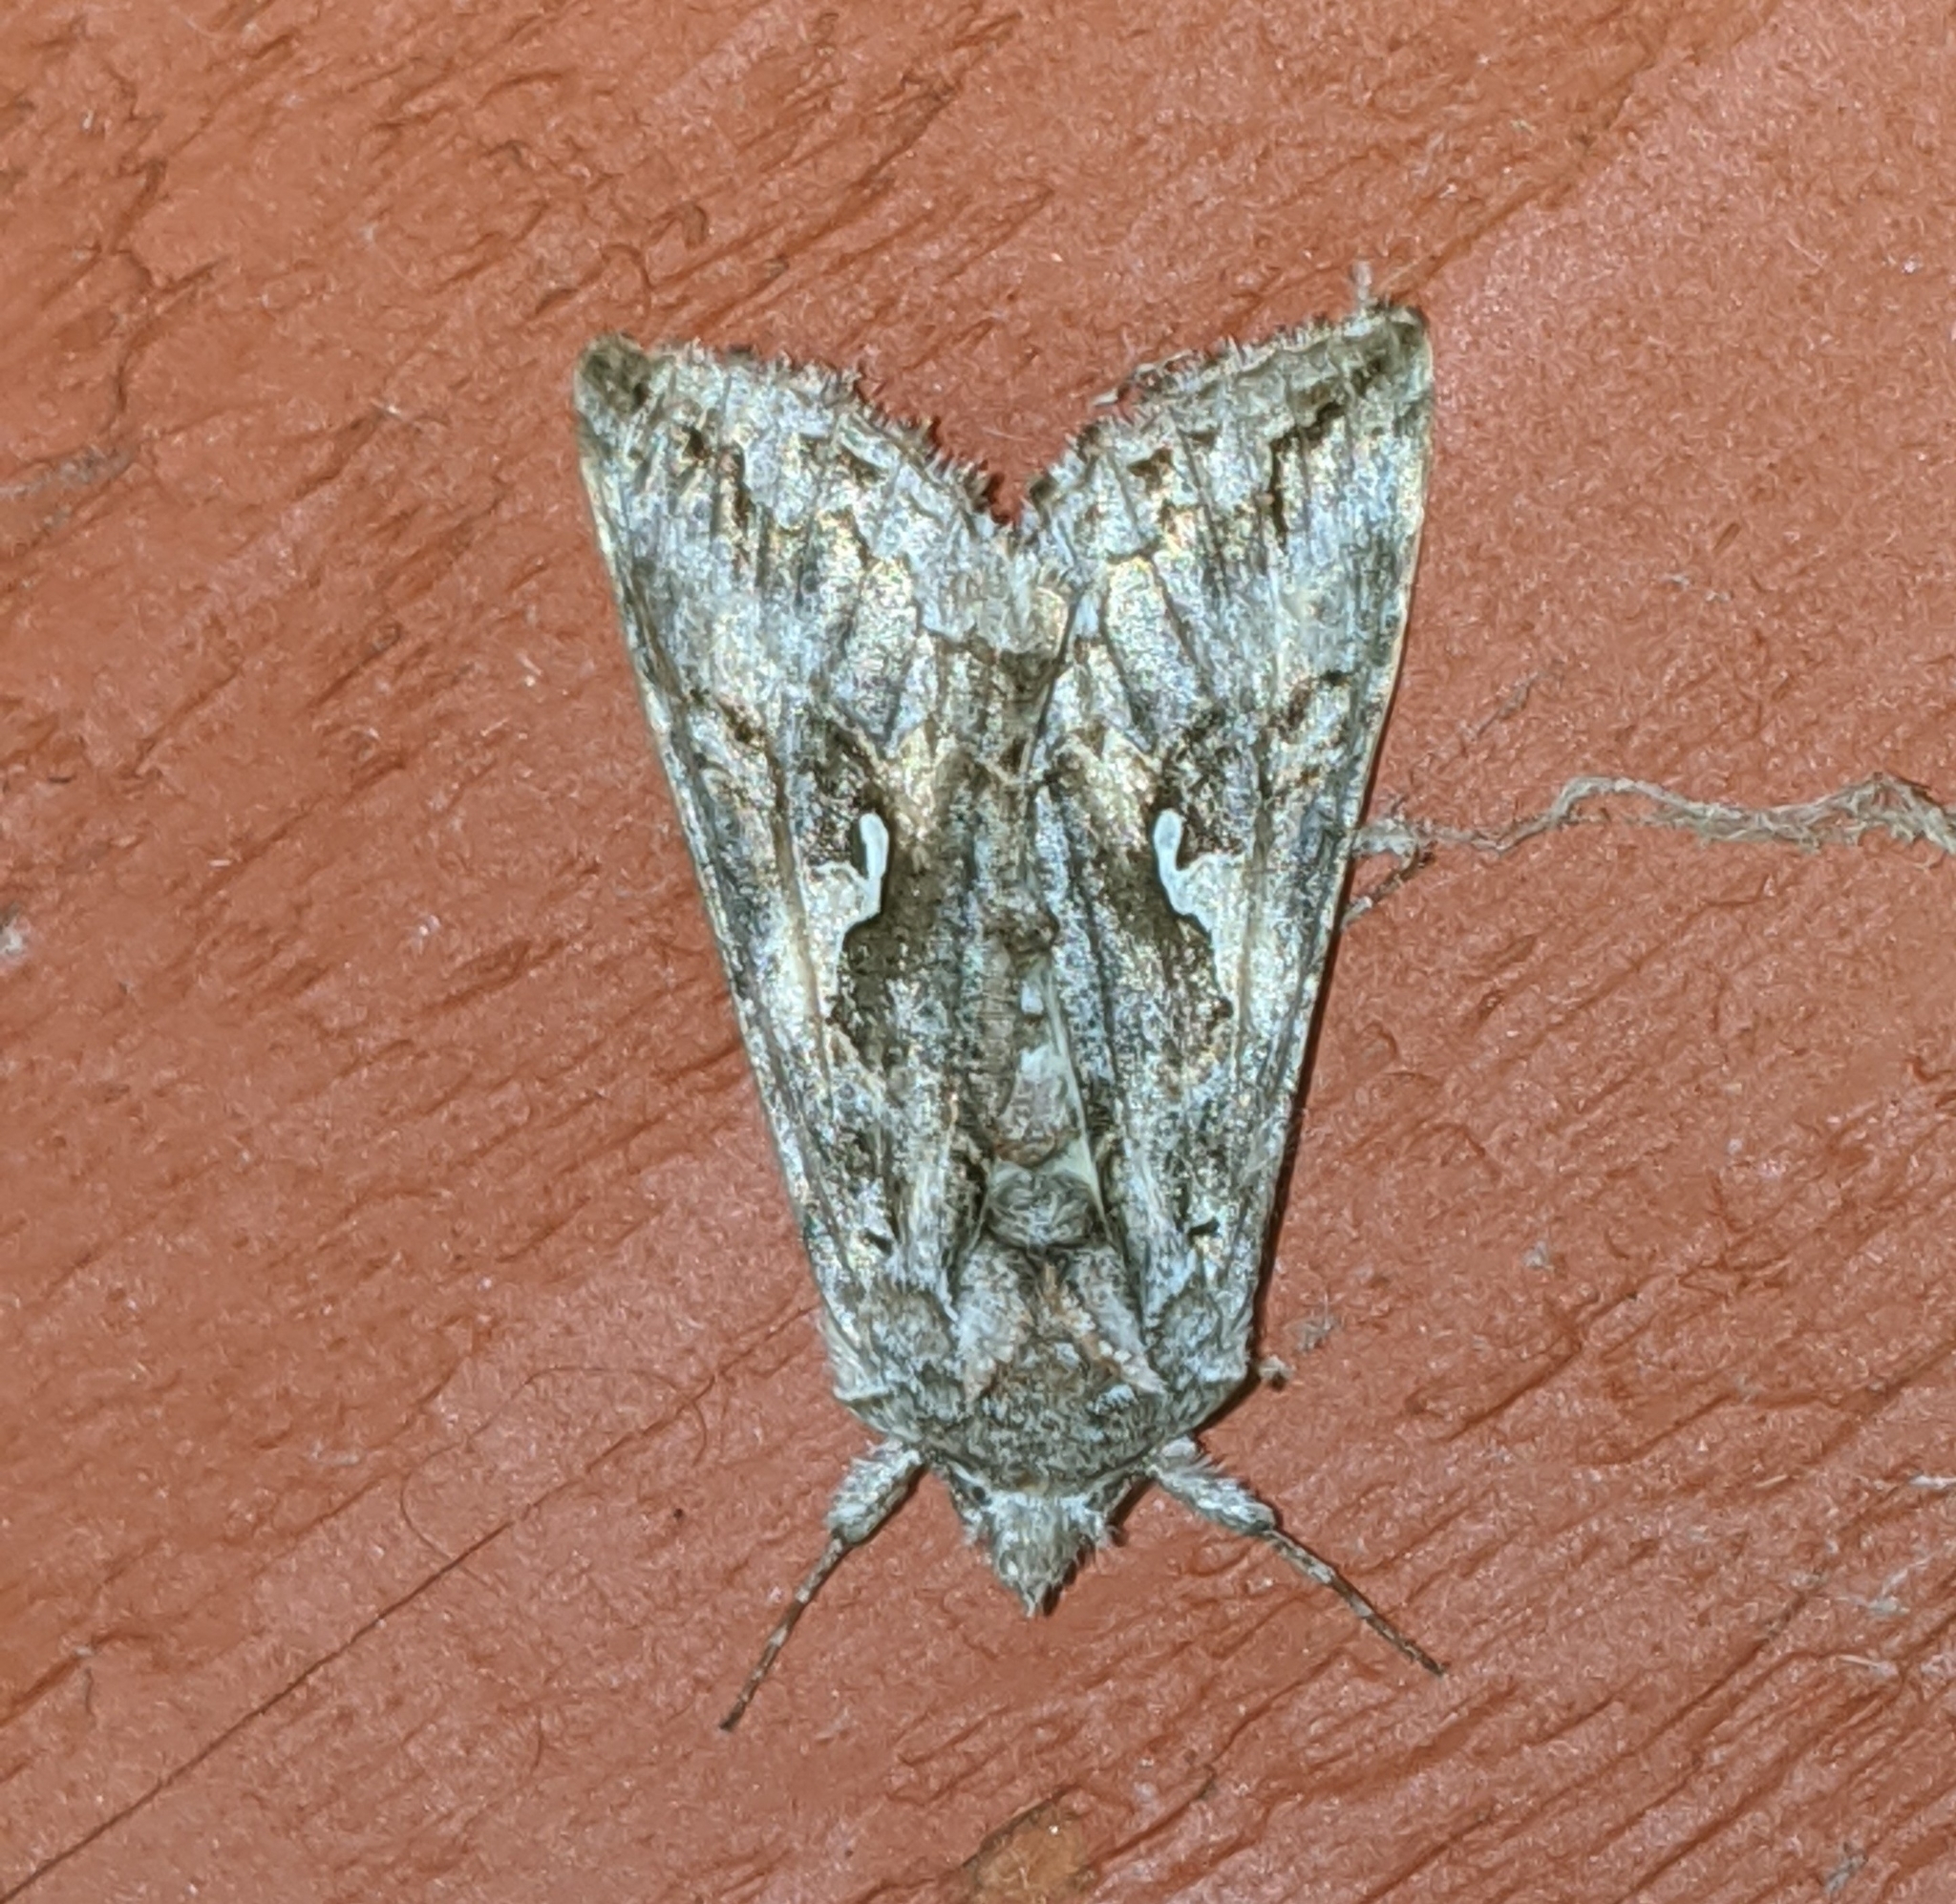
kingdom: Animalia
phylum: Arthropoda
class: Insecta
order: Lepidoptera
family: Noctuidae
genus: Autographa
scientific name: Autographa californica
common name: Alfalfa looper
